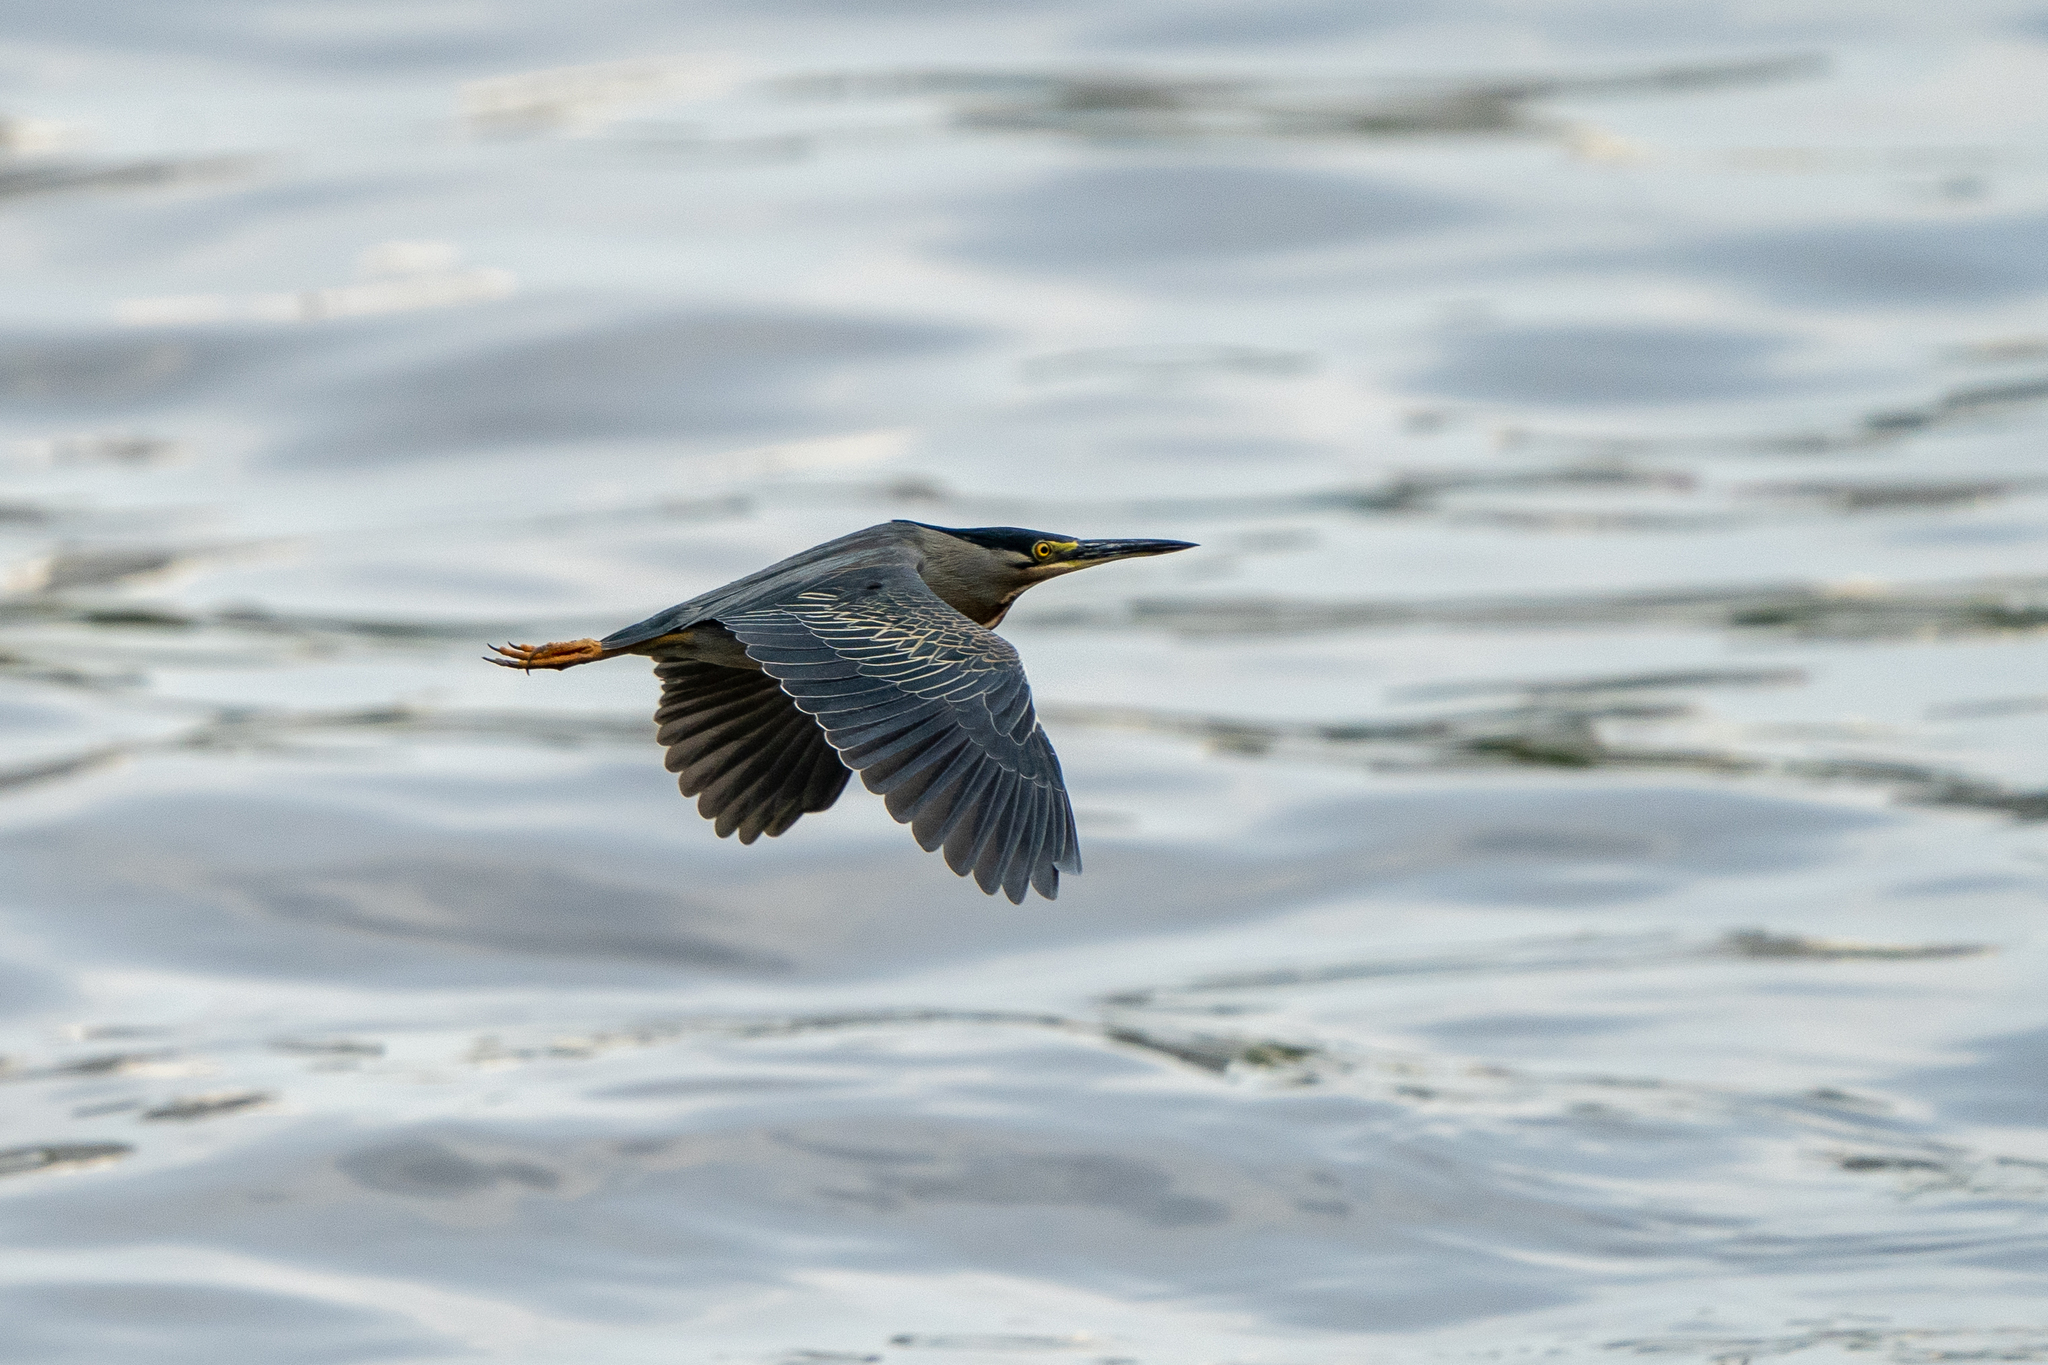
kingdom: Animalia
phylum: Chordata
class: Aves
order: Pelecaniformes
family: Ardeidae
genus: Butorides
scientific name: Butorides striata
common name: Striated heron
